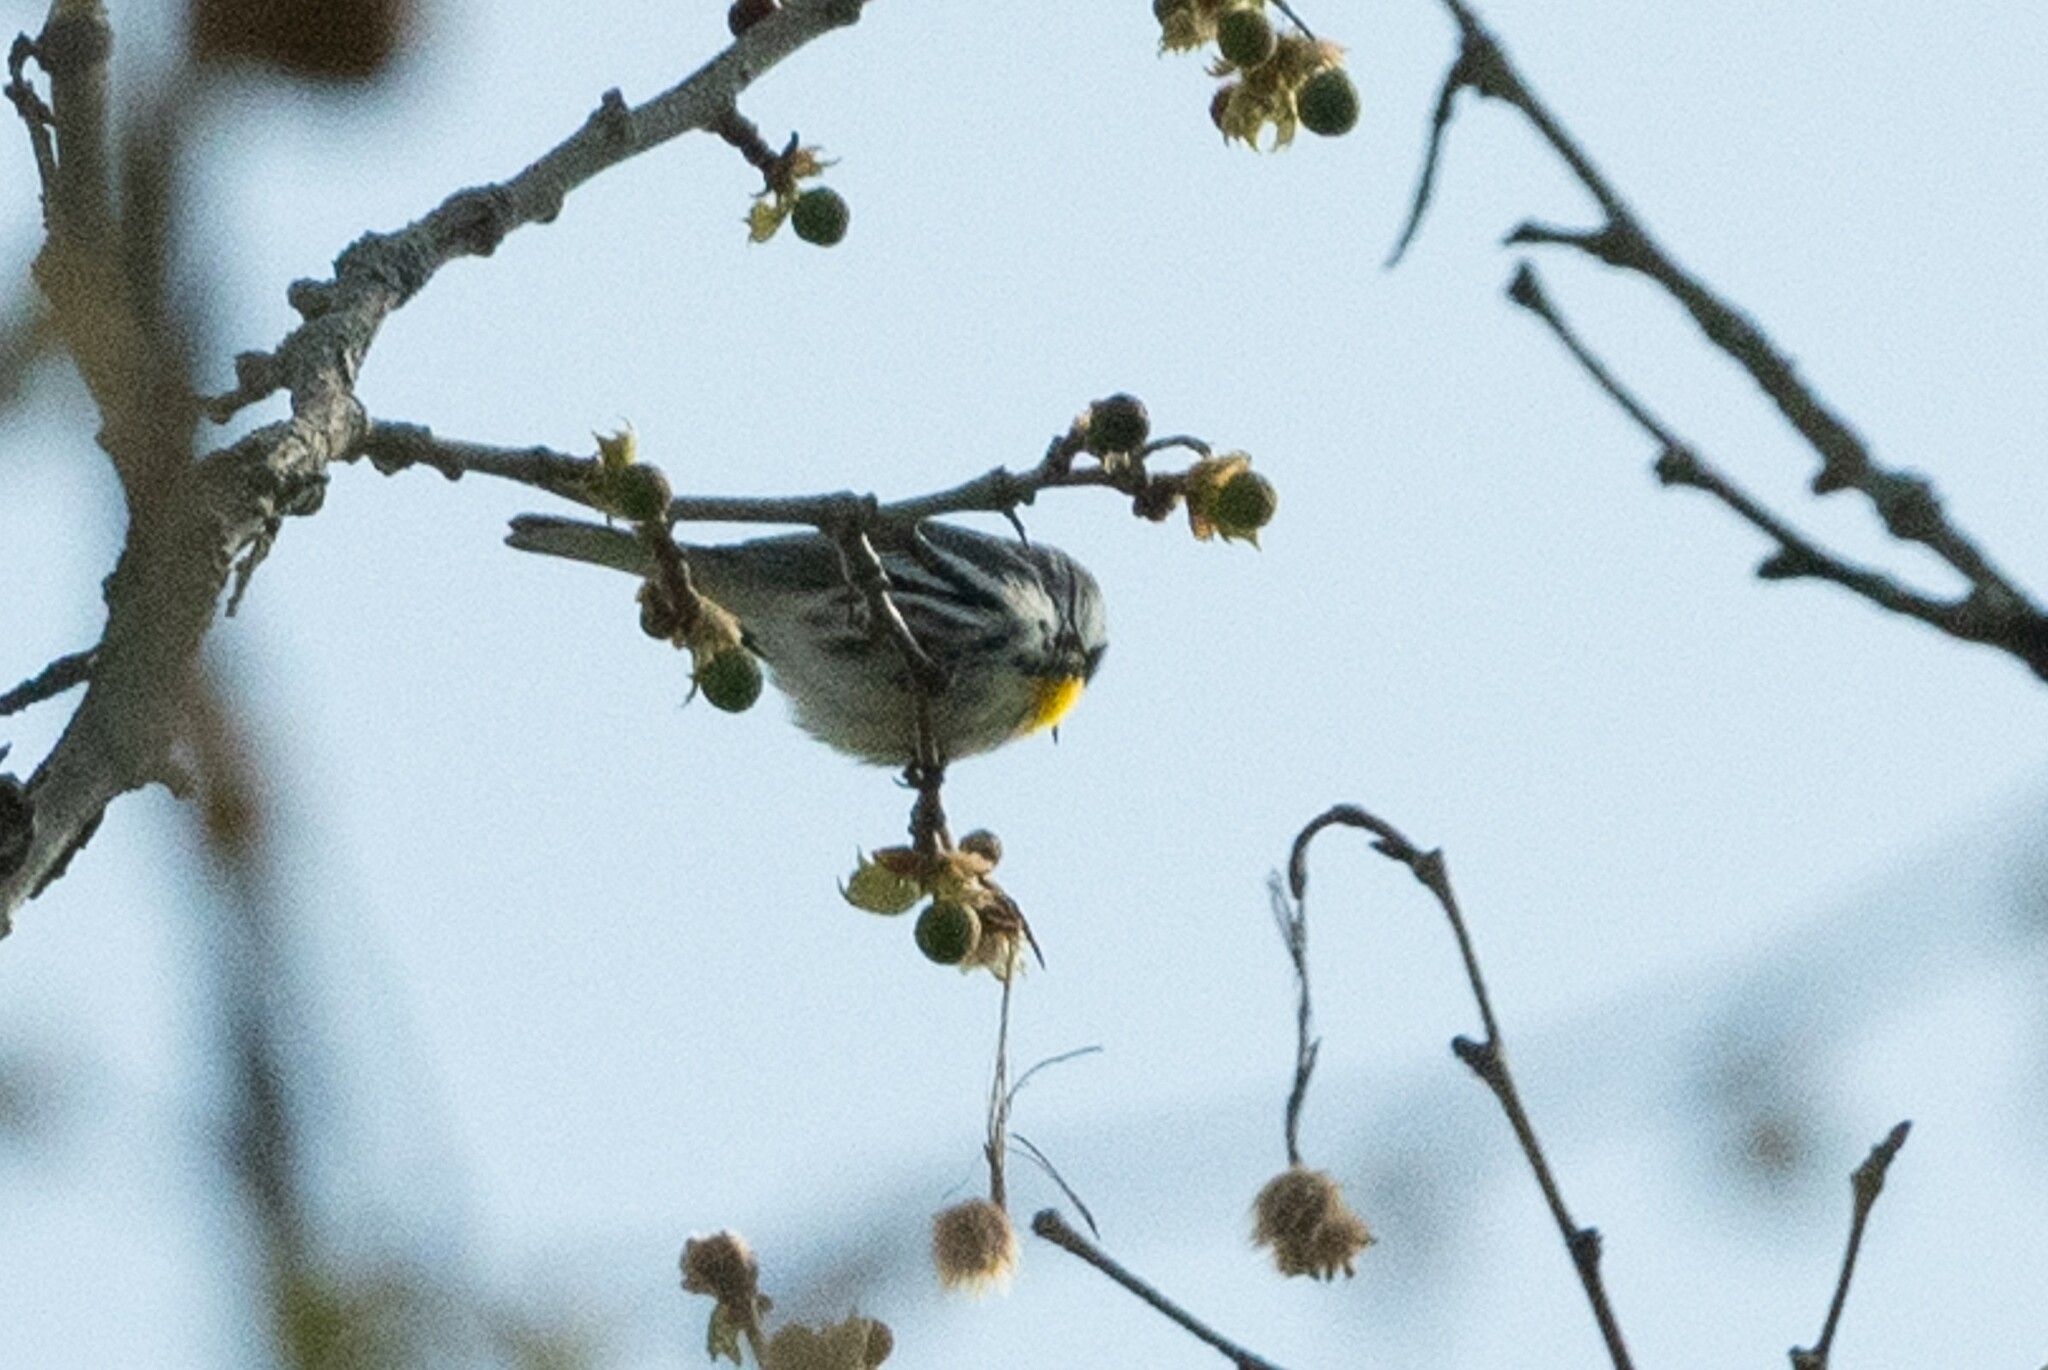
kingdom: Animalia
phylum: Chordata
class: Aves
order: Passeriformes
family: Parulidae
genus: Setophaga
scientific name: Setophaga dominica
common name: Yellow-throated warbler
